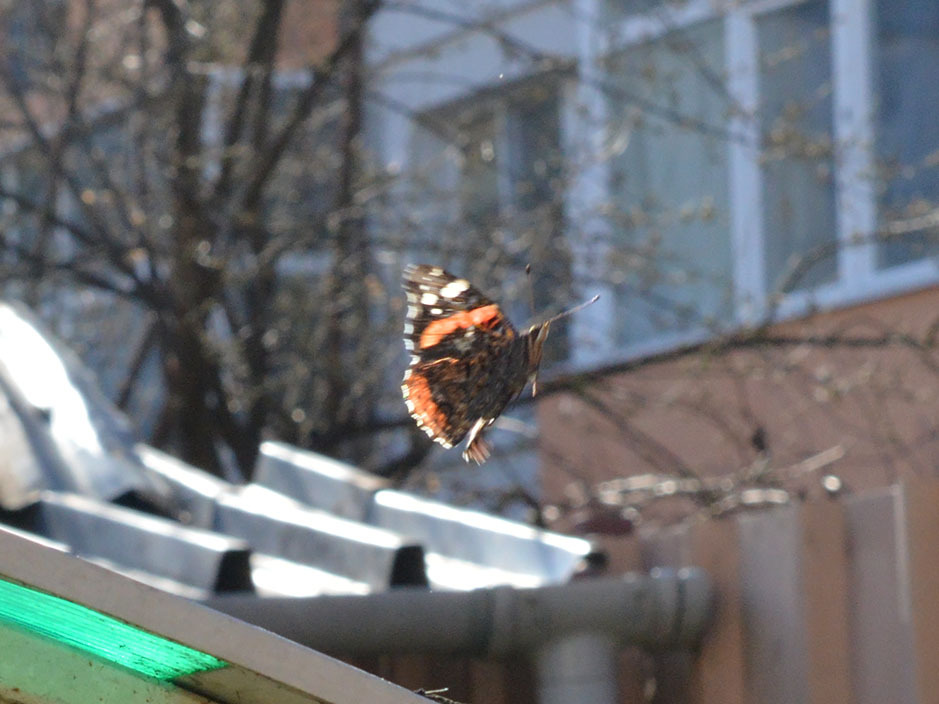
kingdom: Animalia
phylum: Arthropoda
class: Insecta
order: Lepidoptera
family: Nymphalidae
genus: Vanessa
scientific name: Vanessa atalanta
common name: Red admiral
